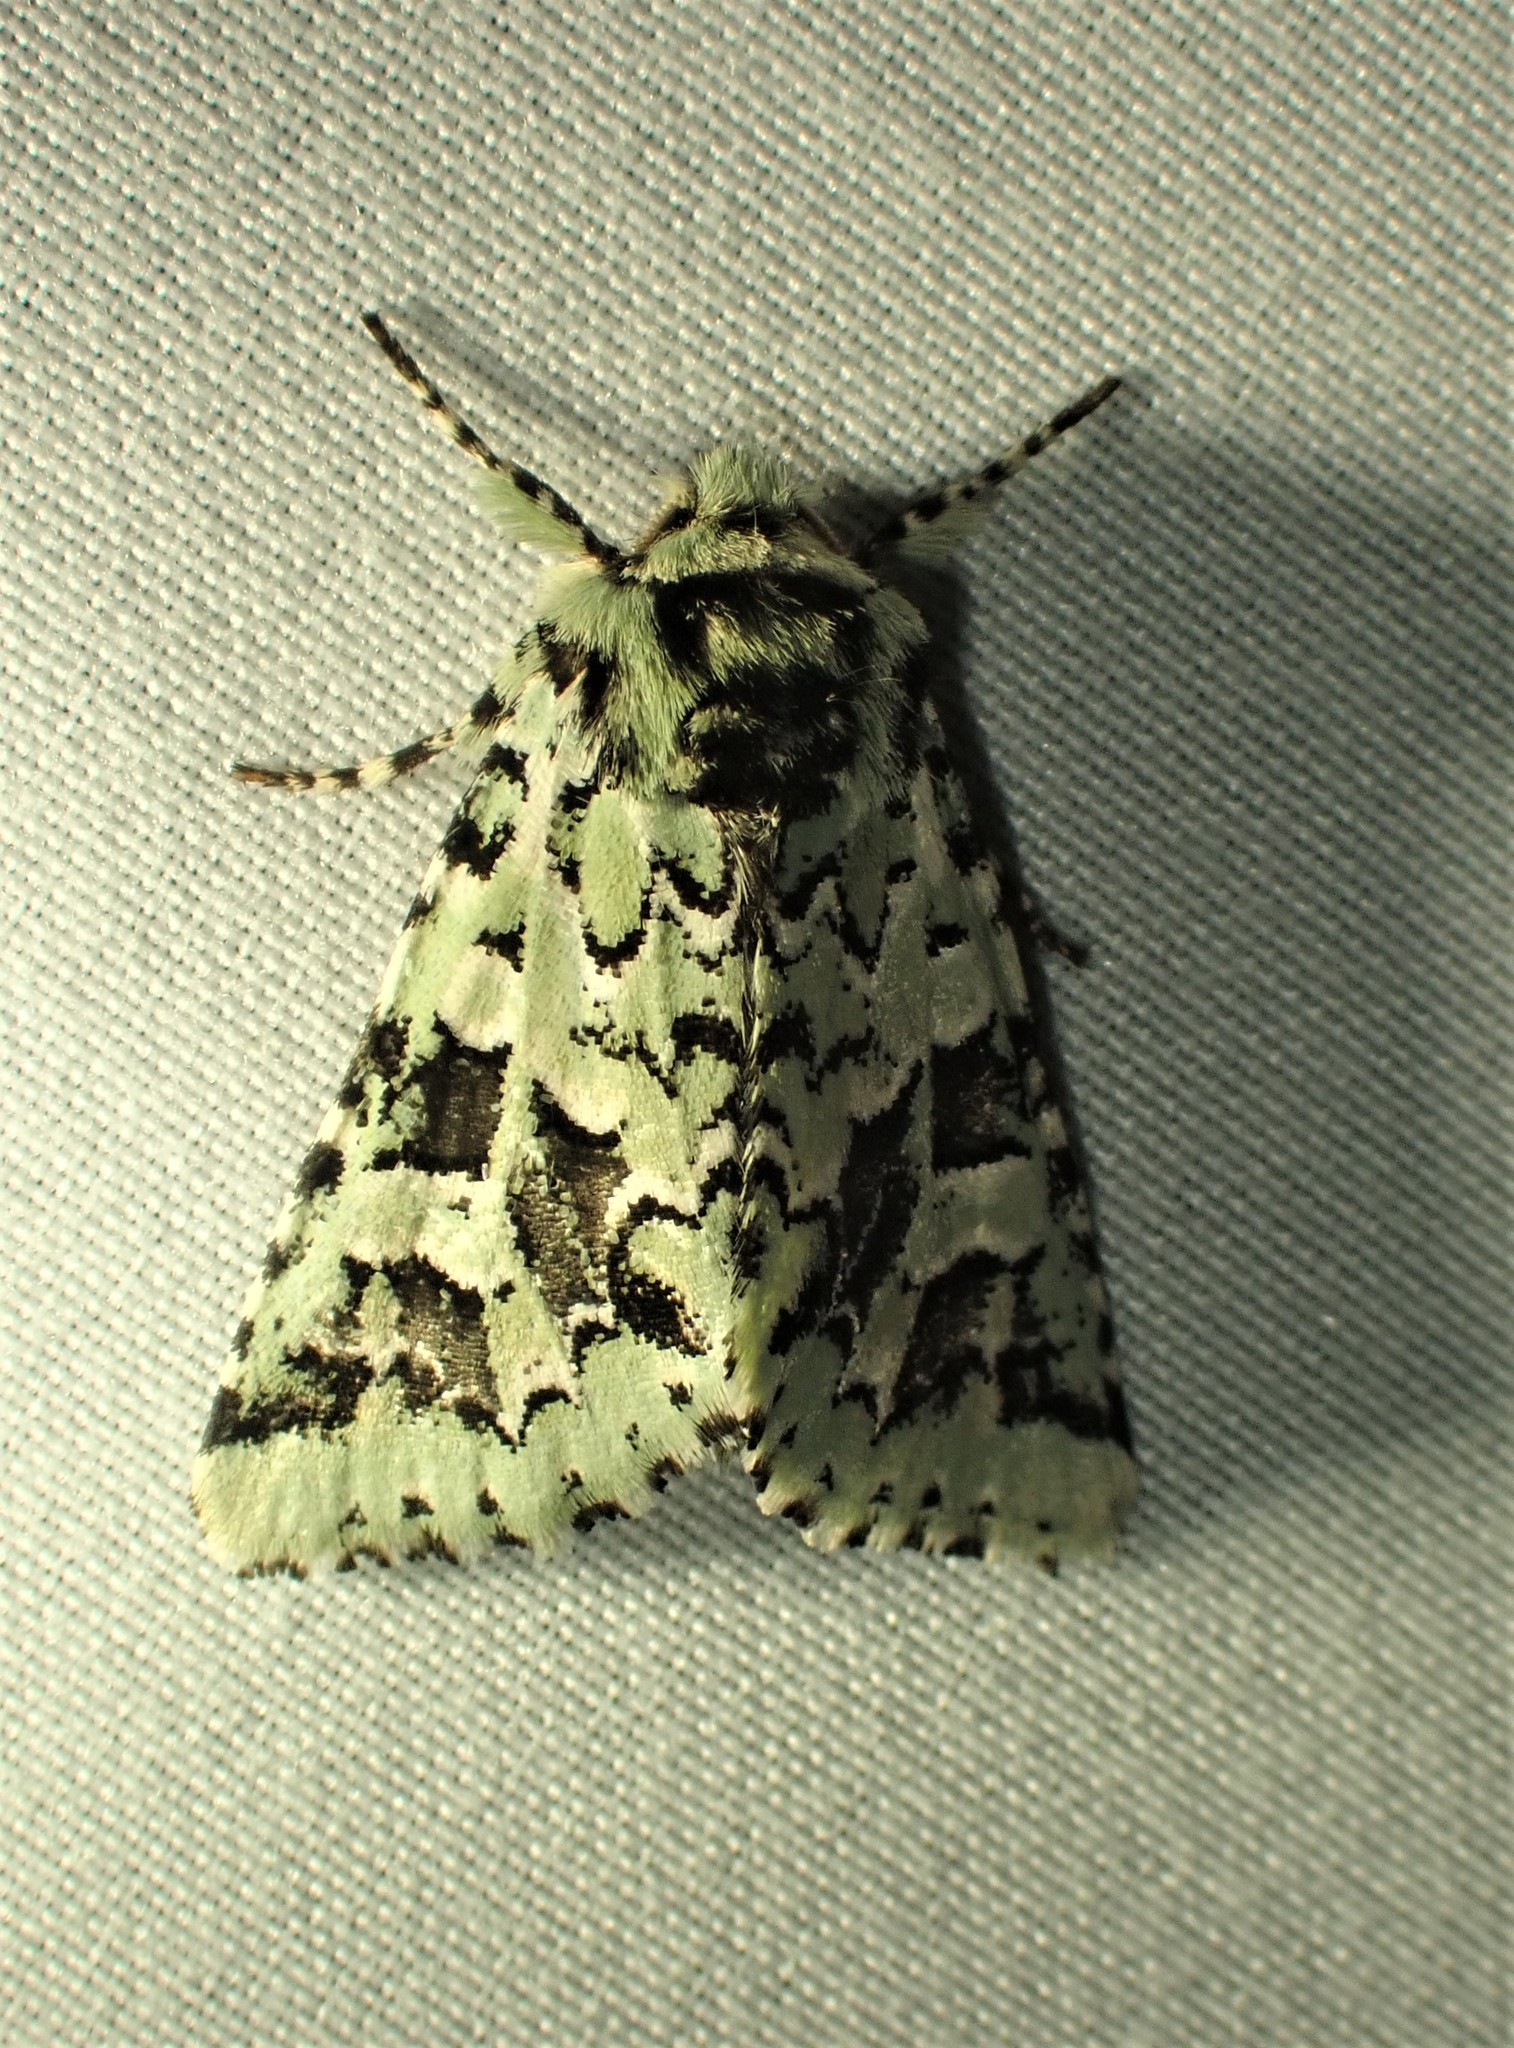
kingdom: Animalia
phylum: Arthropoda
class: Insecta
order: Lepidoptera
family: Noctuidae
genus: Feralia
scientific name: Feralia comstocki
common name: Comstock's sallow
